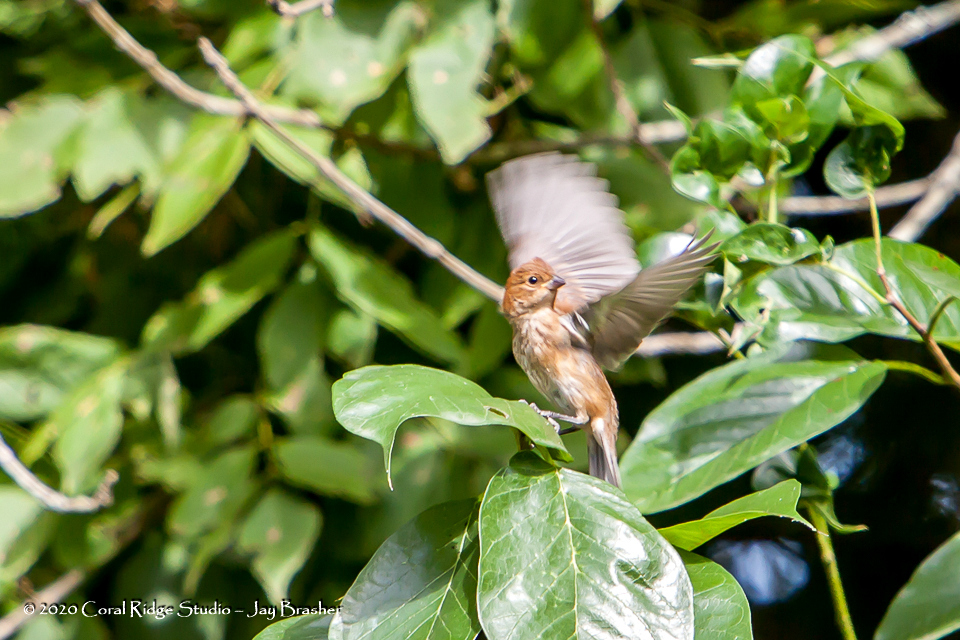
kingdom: Animalia
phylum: Chordata
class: Aves
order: Passeriformes
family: Cardinalidae
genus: Passerina
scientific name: Passerina cyanea
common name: Indigo bunting
